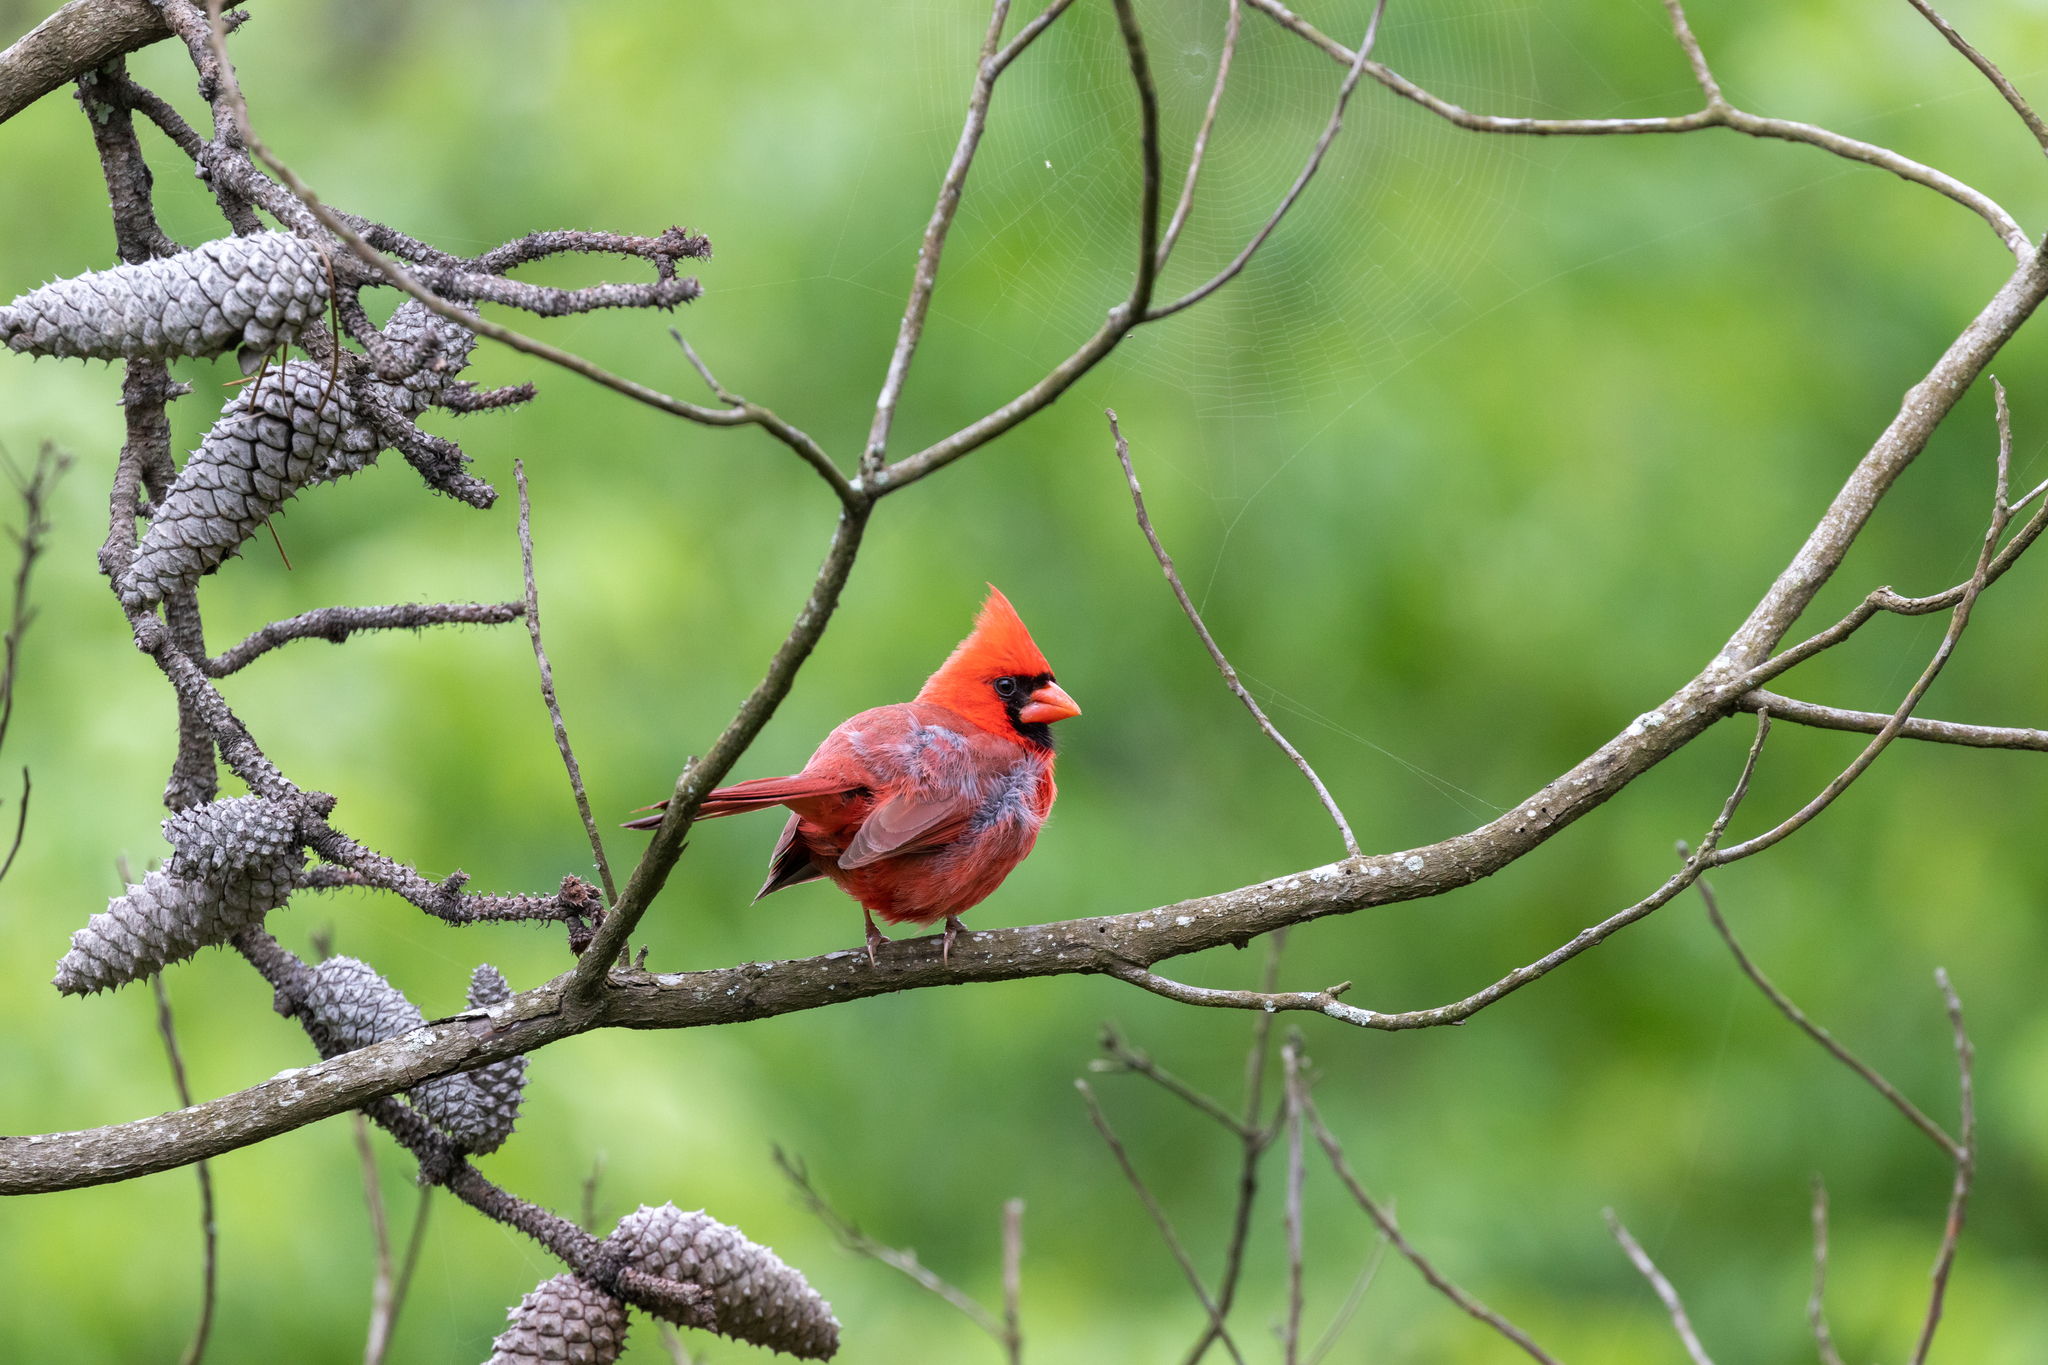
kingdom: Animalia
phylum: Chordata
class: Aves
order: Passeriformes
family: Cardinalidae
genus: Cardinalis
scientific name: Cardinalis cardinalis
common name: Northern cardinal
